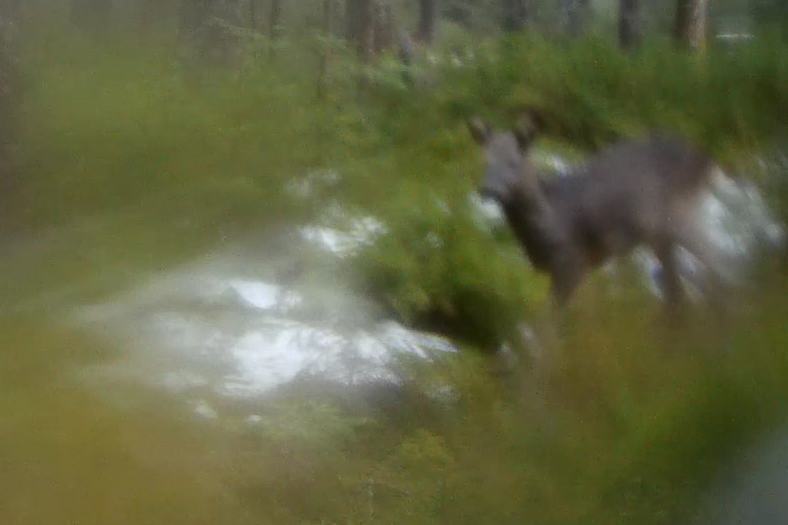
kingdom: Animalia
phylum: Chordata
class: Mammalia
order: Artiodactyla
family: Cervidae
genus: Capreolus
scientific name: Capreolus capreolus
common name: Western roe deer
